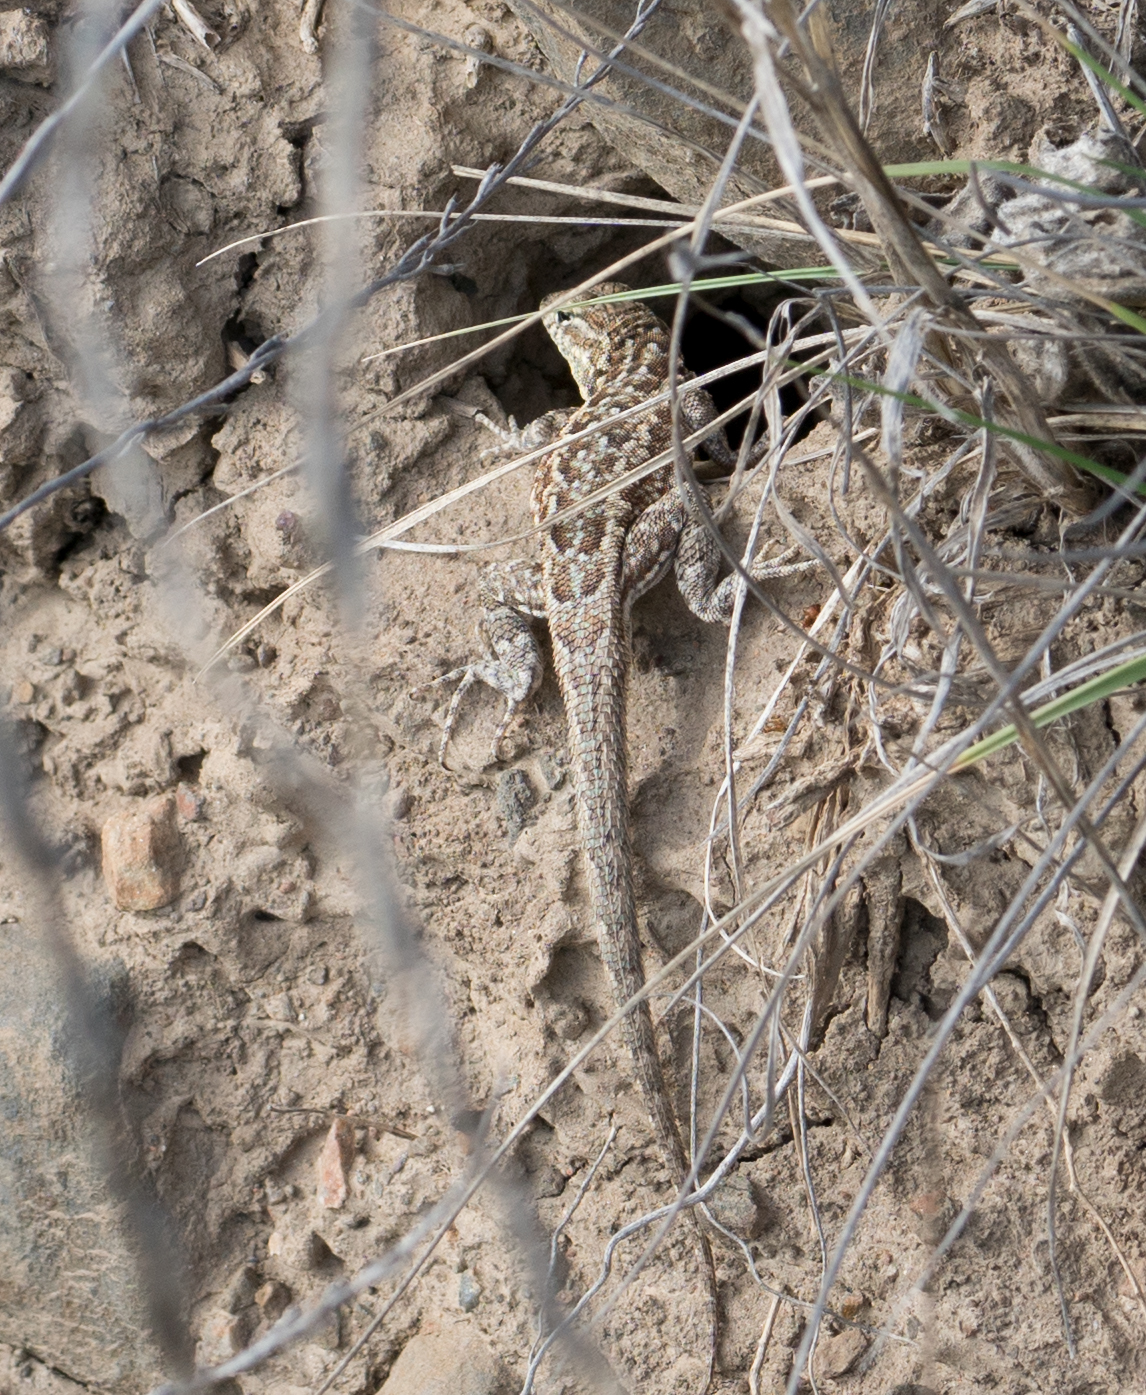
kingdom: Animalia
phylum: Chordata
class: Squamata
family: Phrynosomatidae
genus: Uta
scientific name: Uta stansburiana
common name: Side-blotched lizard
